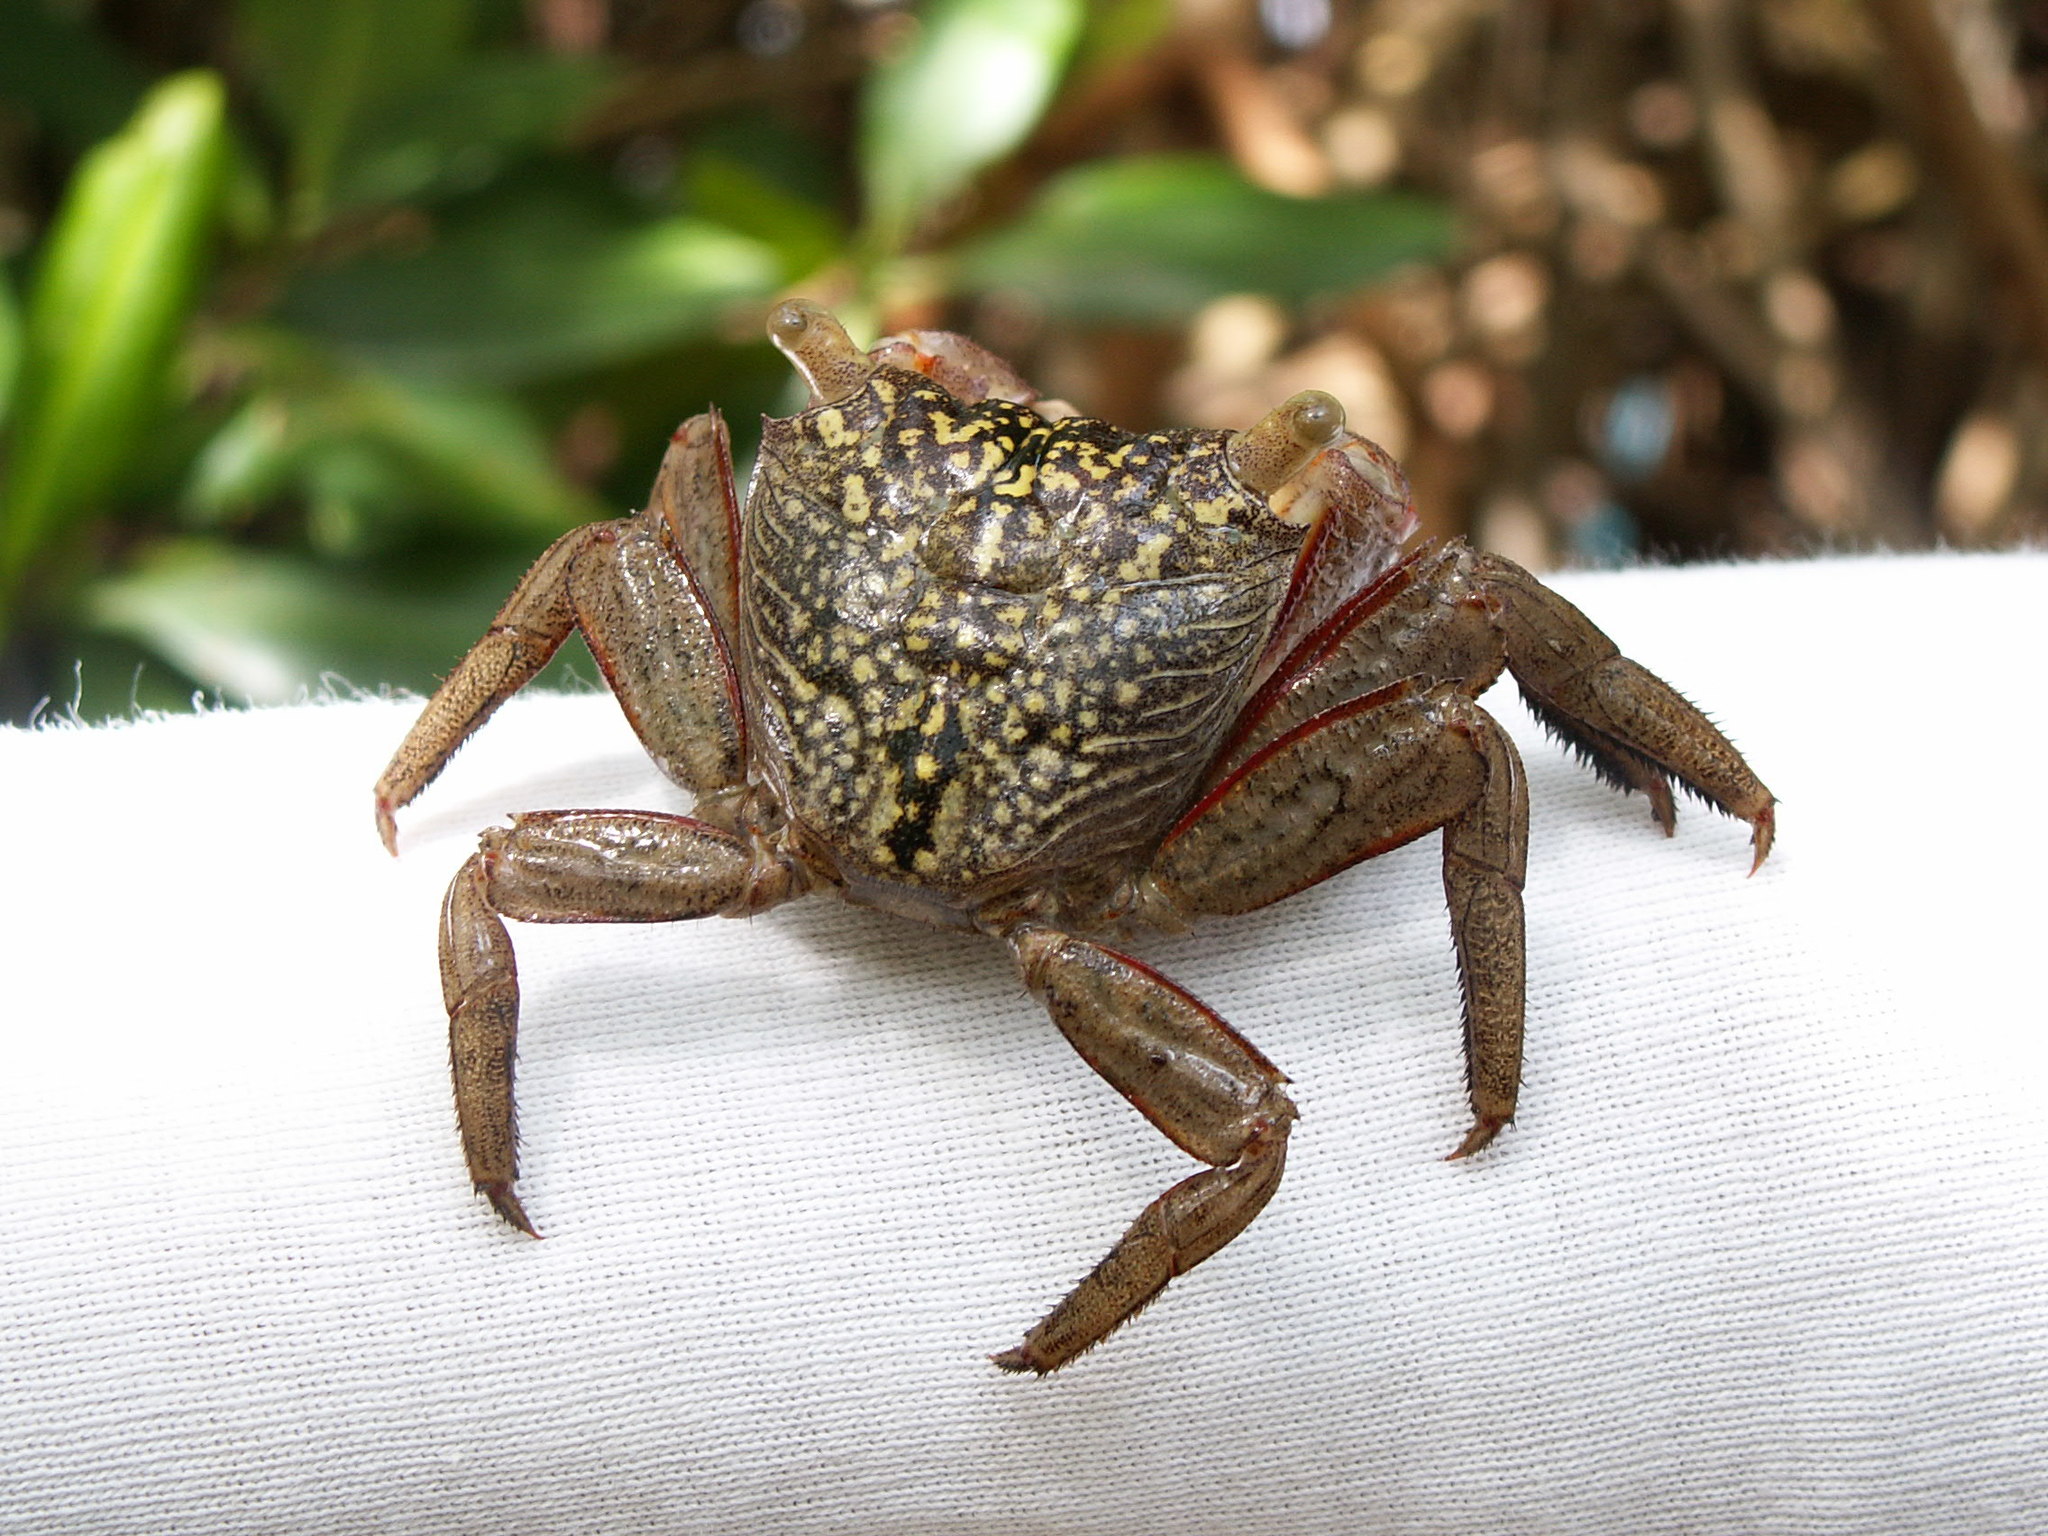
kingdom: Animalia
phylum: Arthropoda
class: Malacostraca
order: Decapoda
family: Sesarmidae
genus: Aratus
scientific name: Aratus pisonii
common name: Mangrove crab
